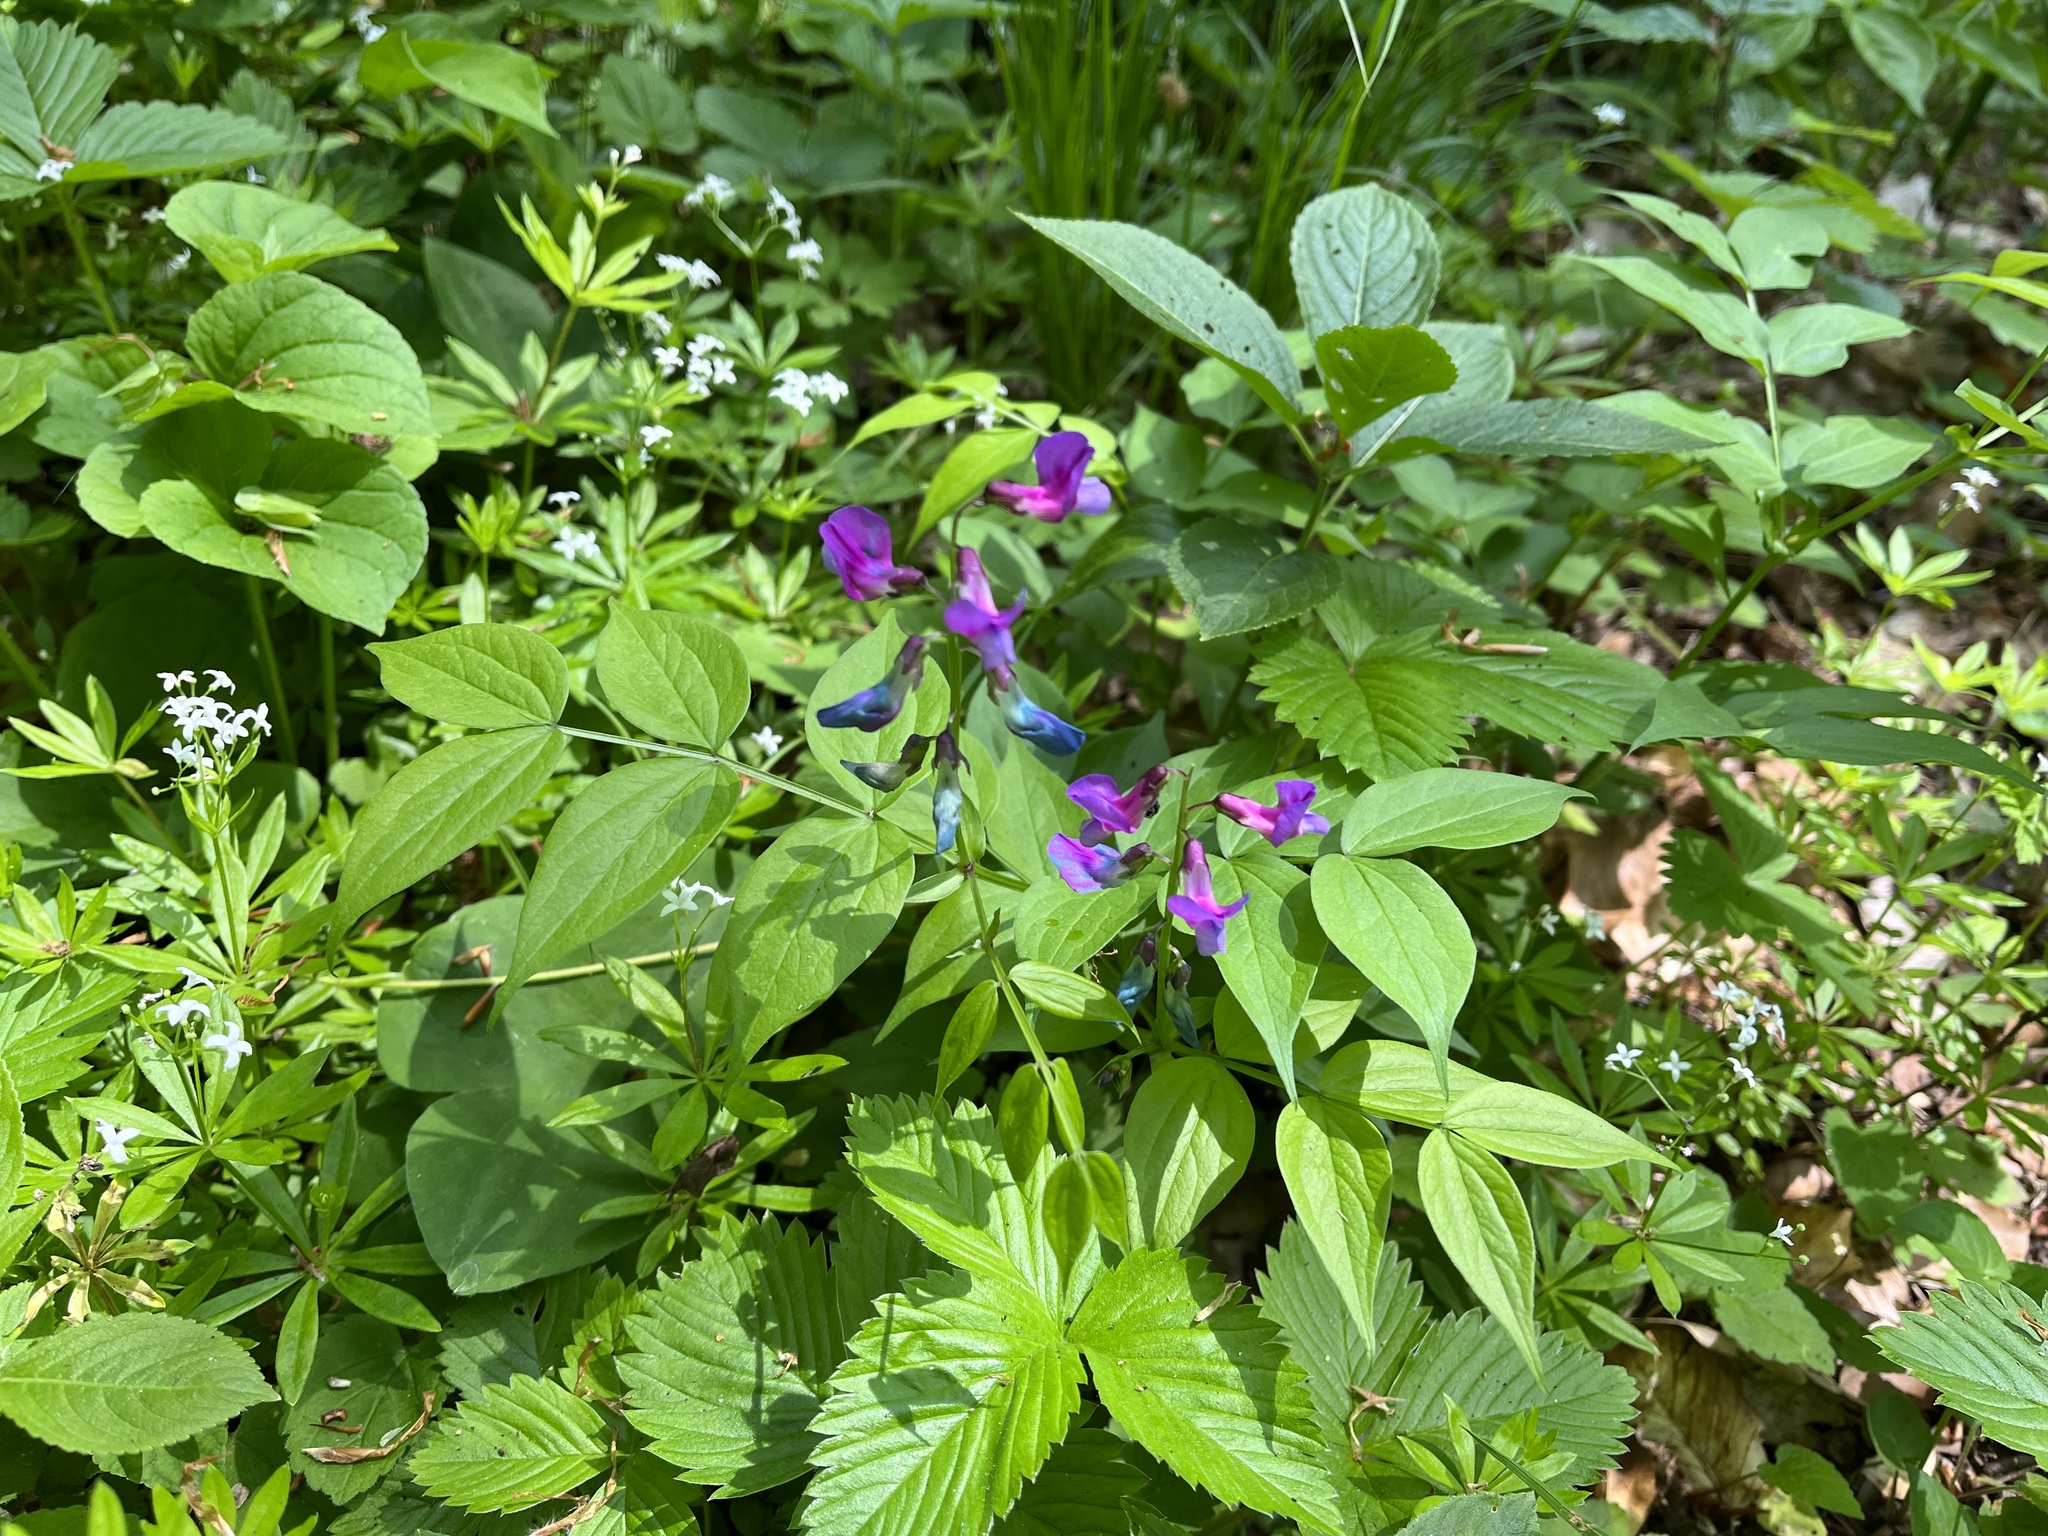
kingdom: Plantae
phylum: Tracheophyta
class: Magnoliopsida
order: Fabales
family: Fabaceae
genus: Lathyrus
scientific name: Lathyrus vernus
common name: Spring pea
